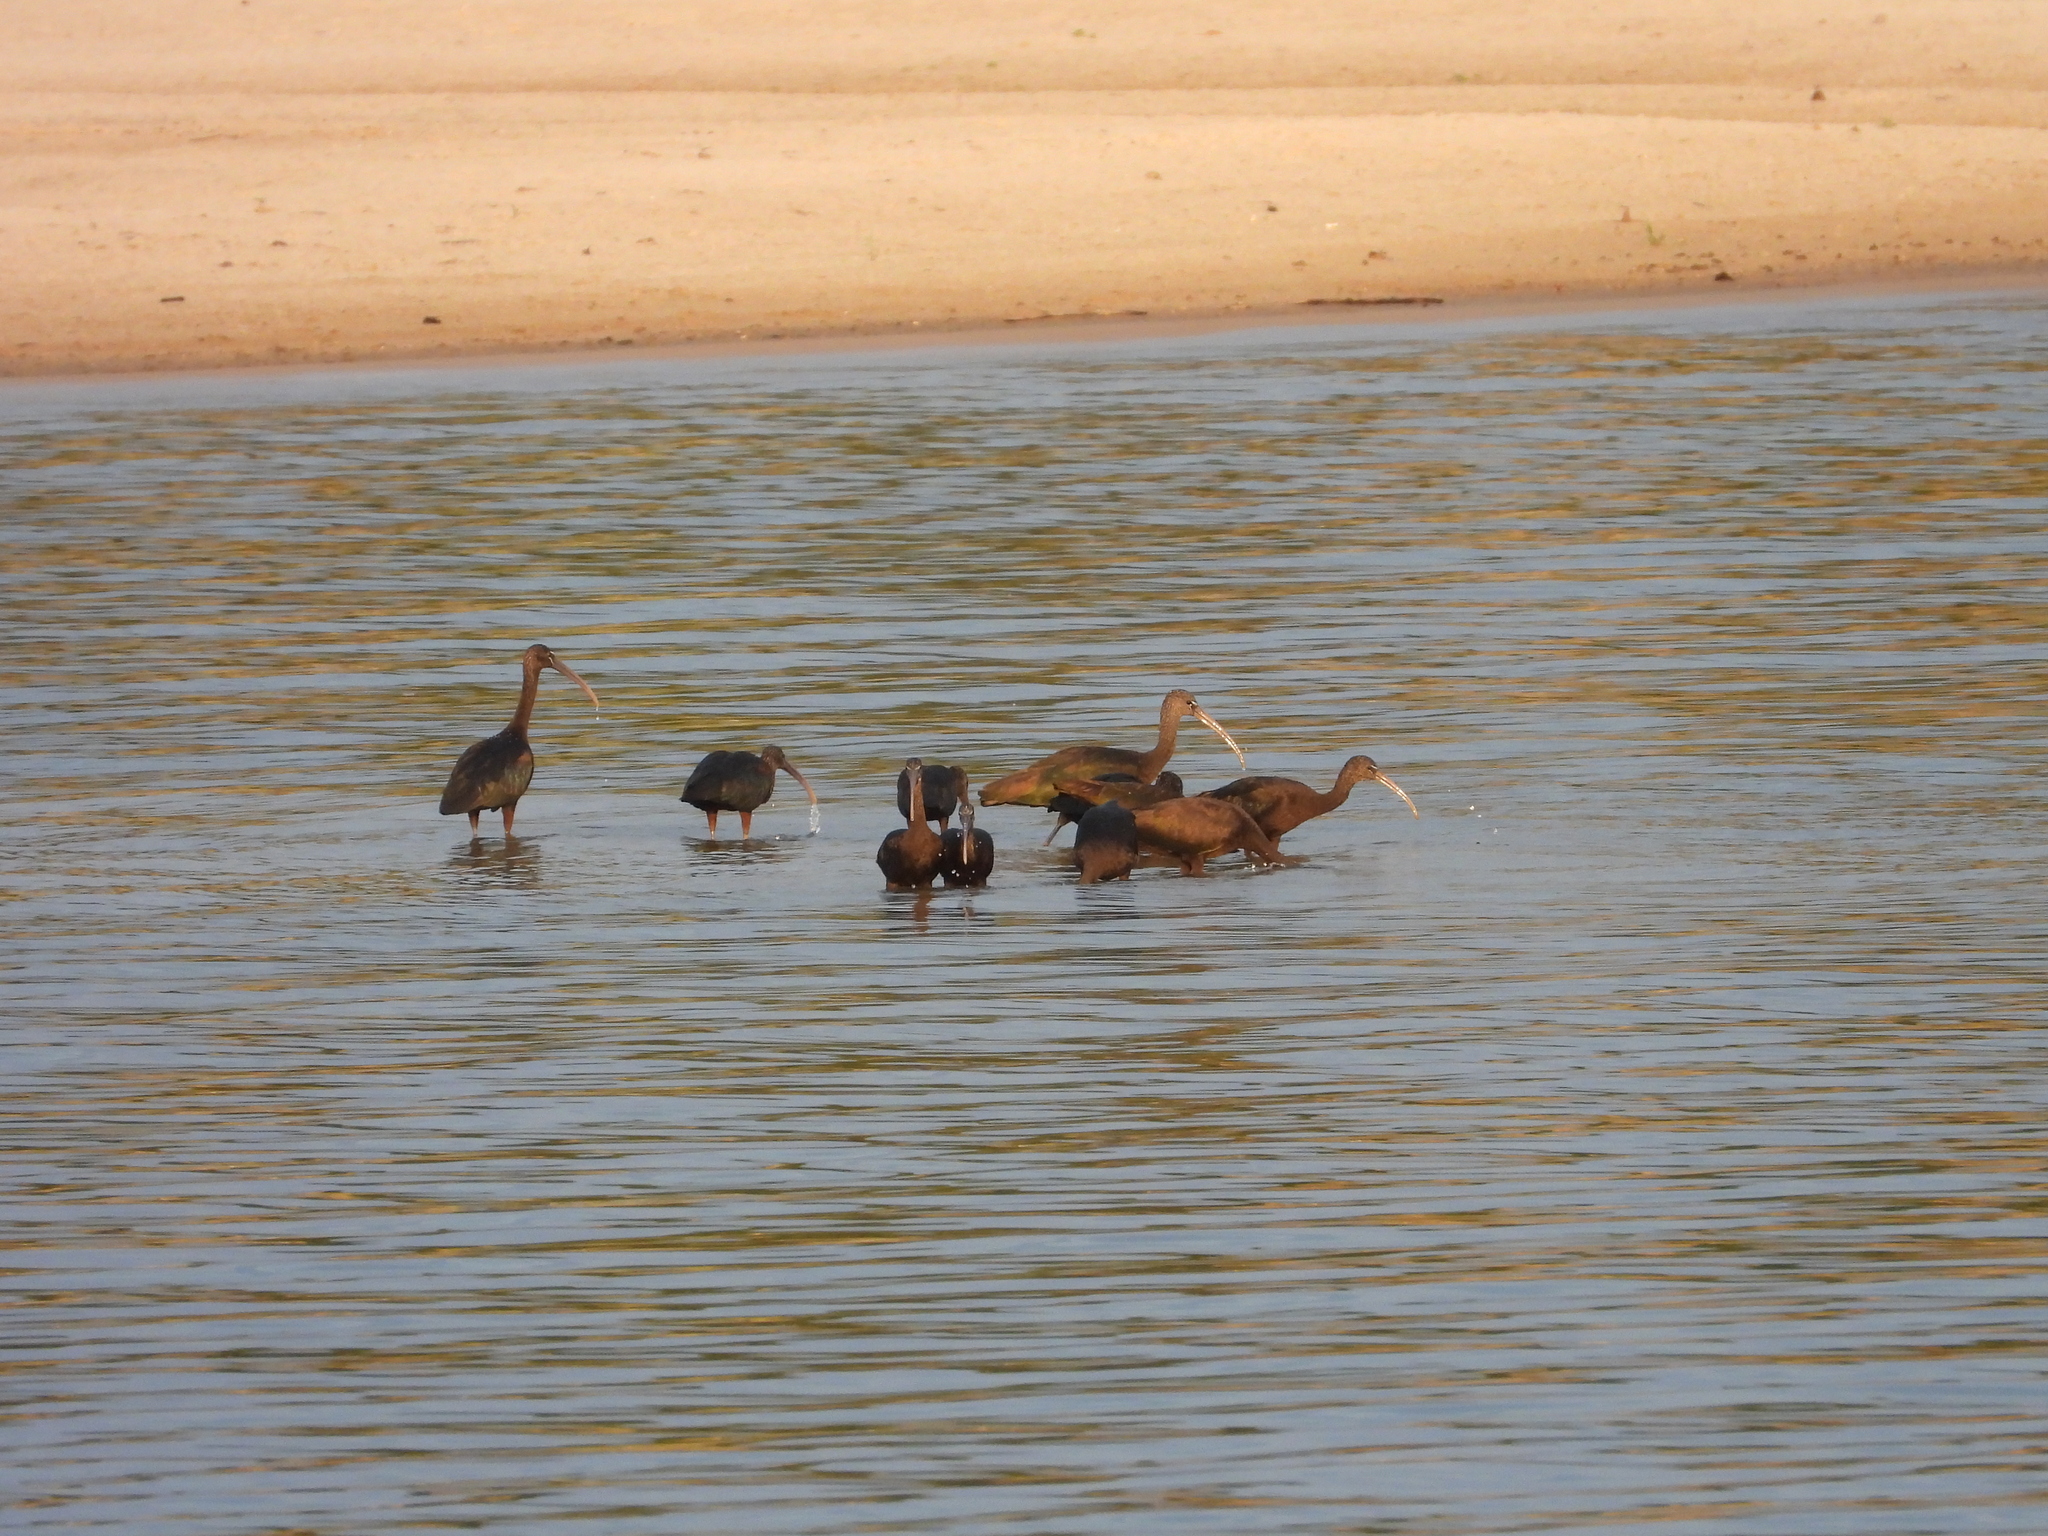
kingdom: Animalia
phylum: Chordata
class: Aves
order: Pelecaniformes
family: Threskiornithidae
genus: Plegadis
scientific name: Plegadis falcinellus
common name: Glossy ibis
